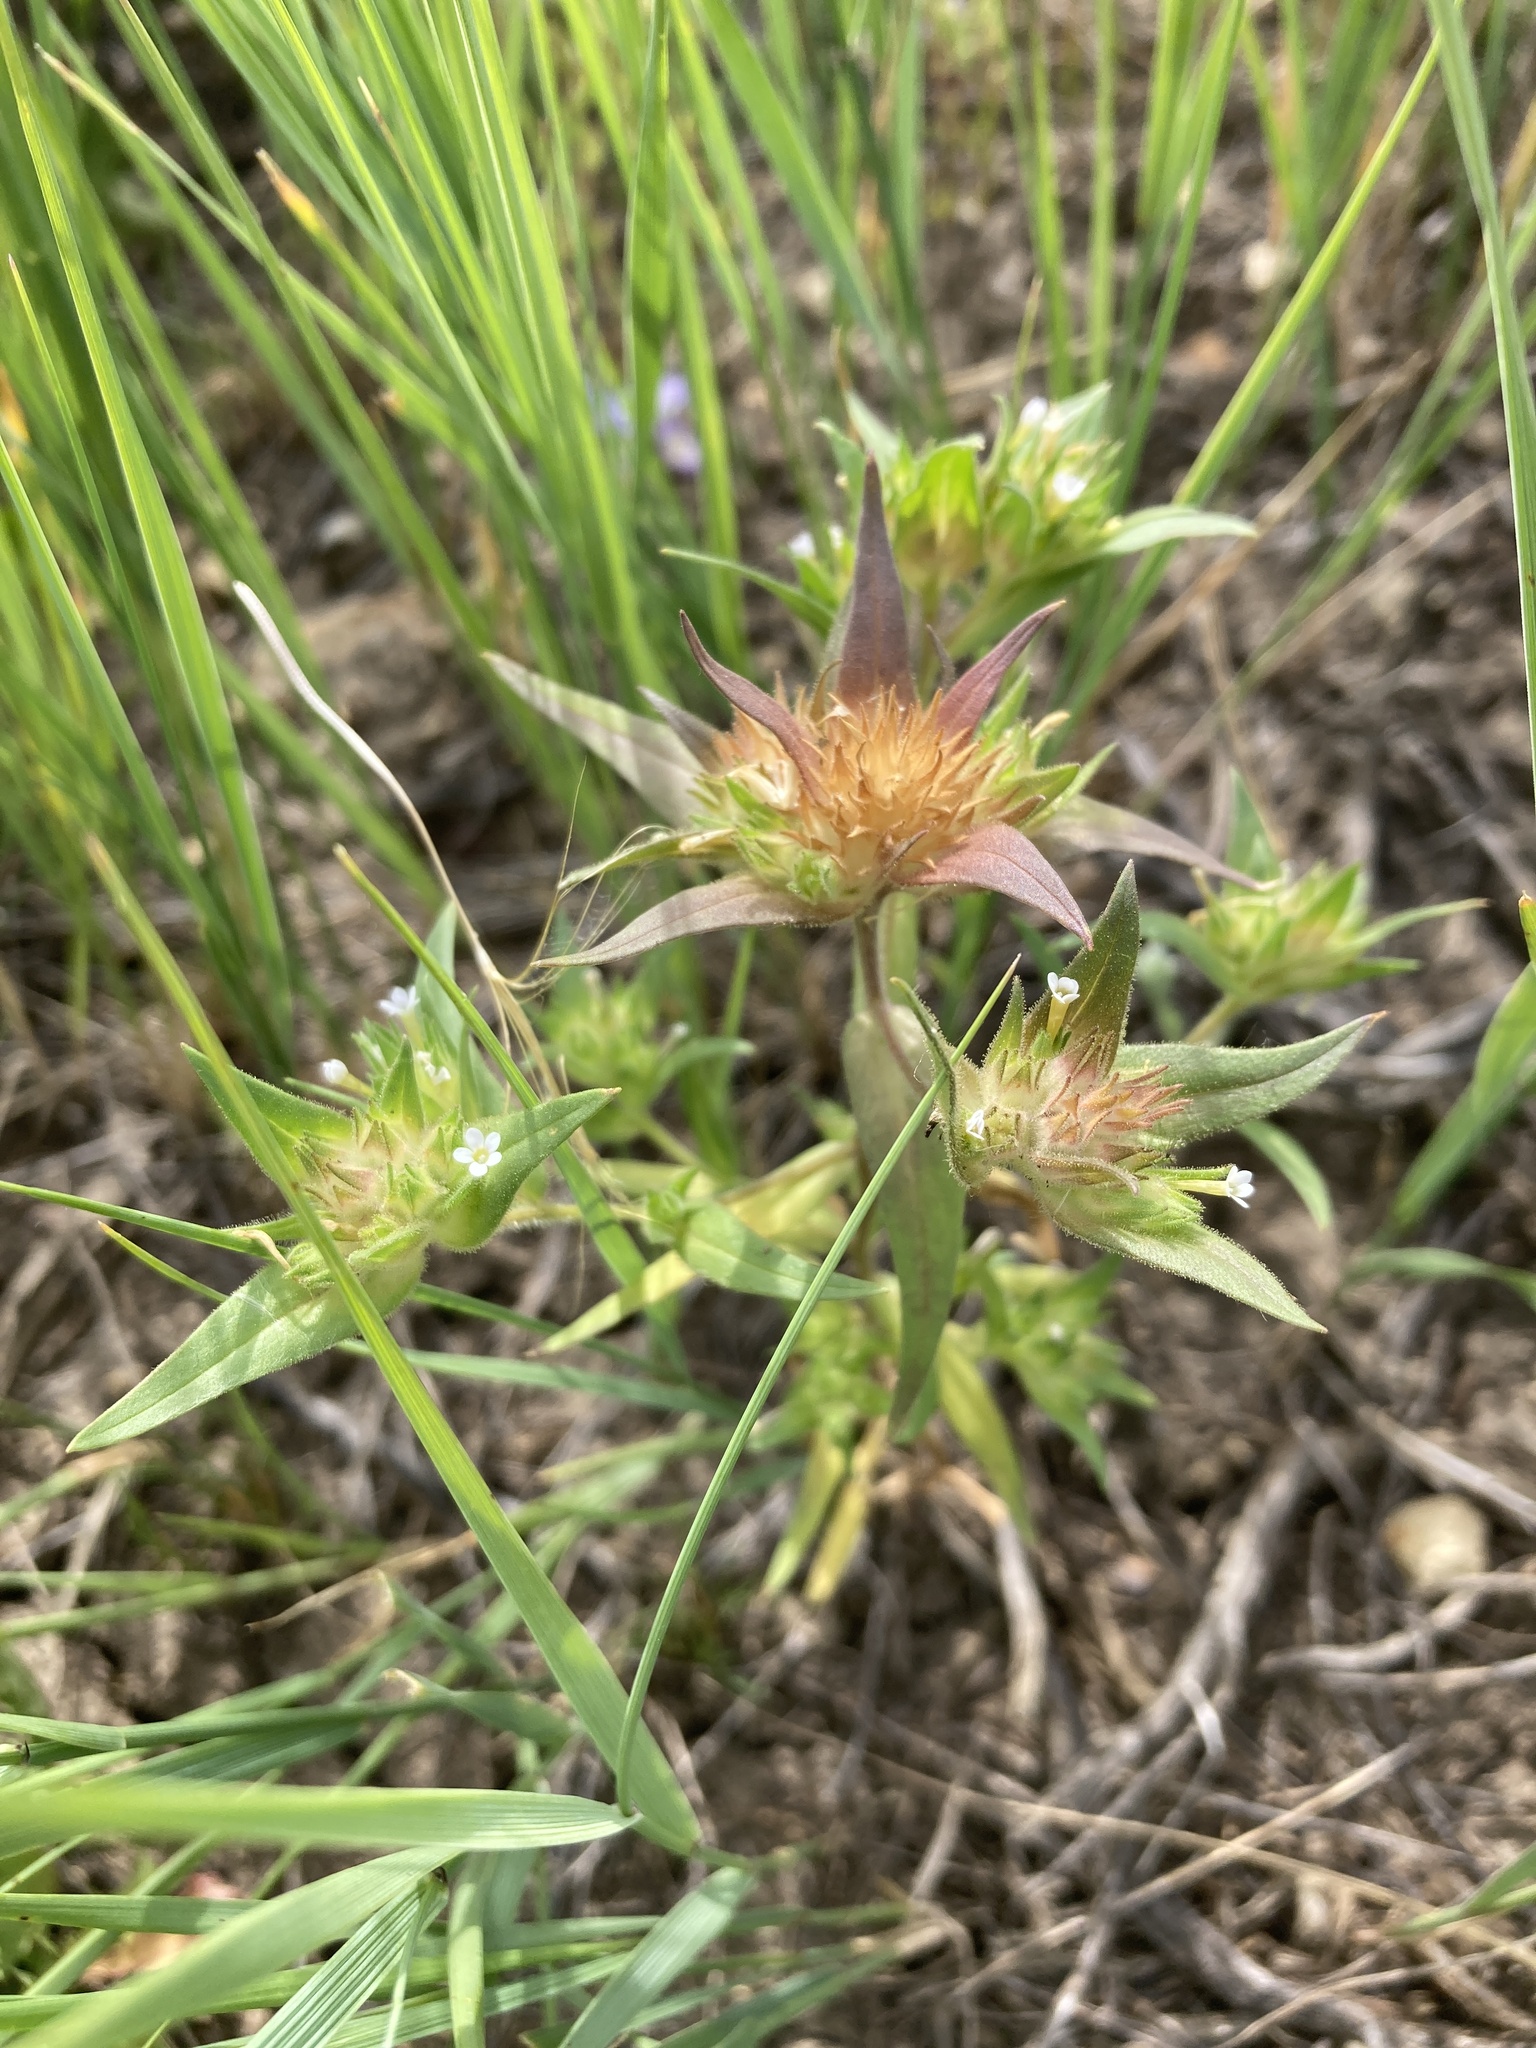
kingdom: Plantae
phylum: Tracheophyta
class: Magnoliopsida
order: Ericales
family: Polemoniaceae
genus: Collomia
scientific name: Collomia linearis
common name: Tiny trumpet
